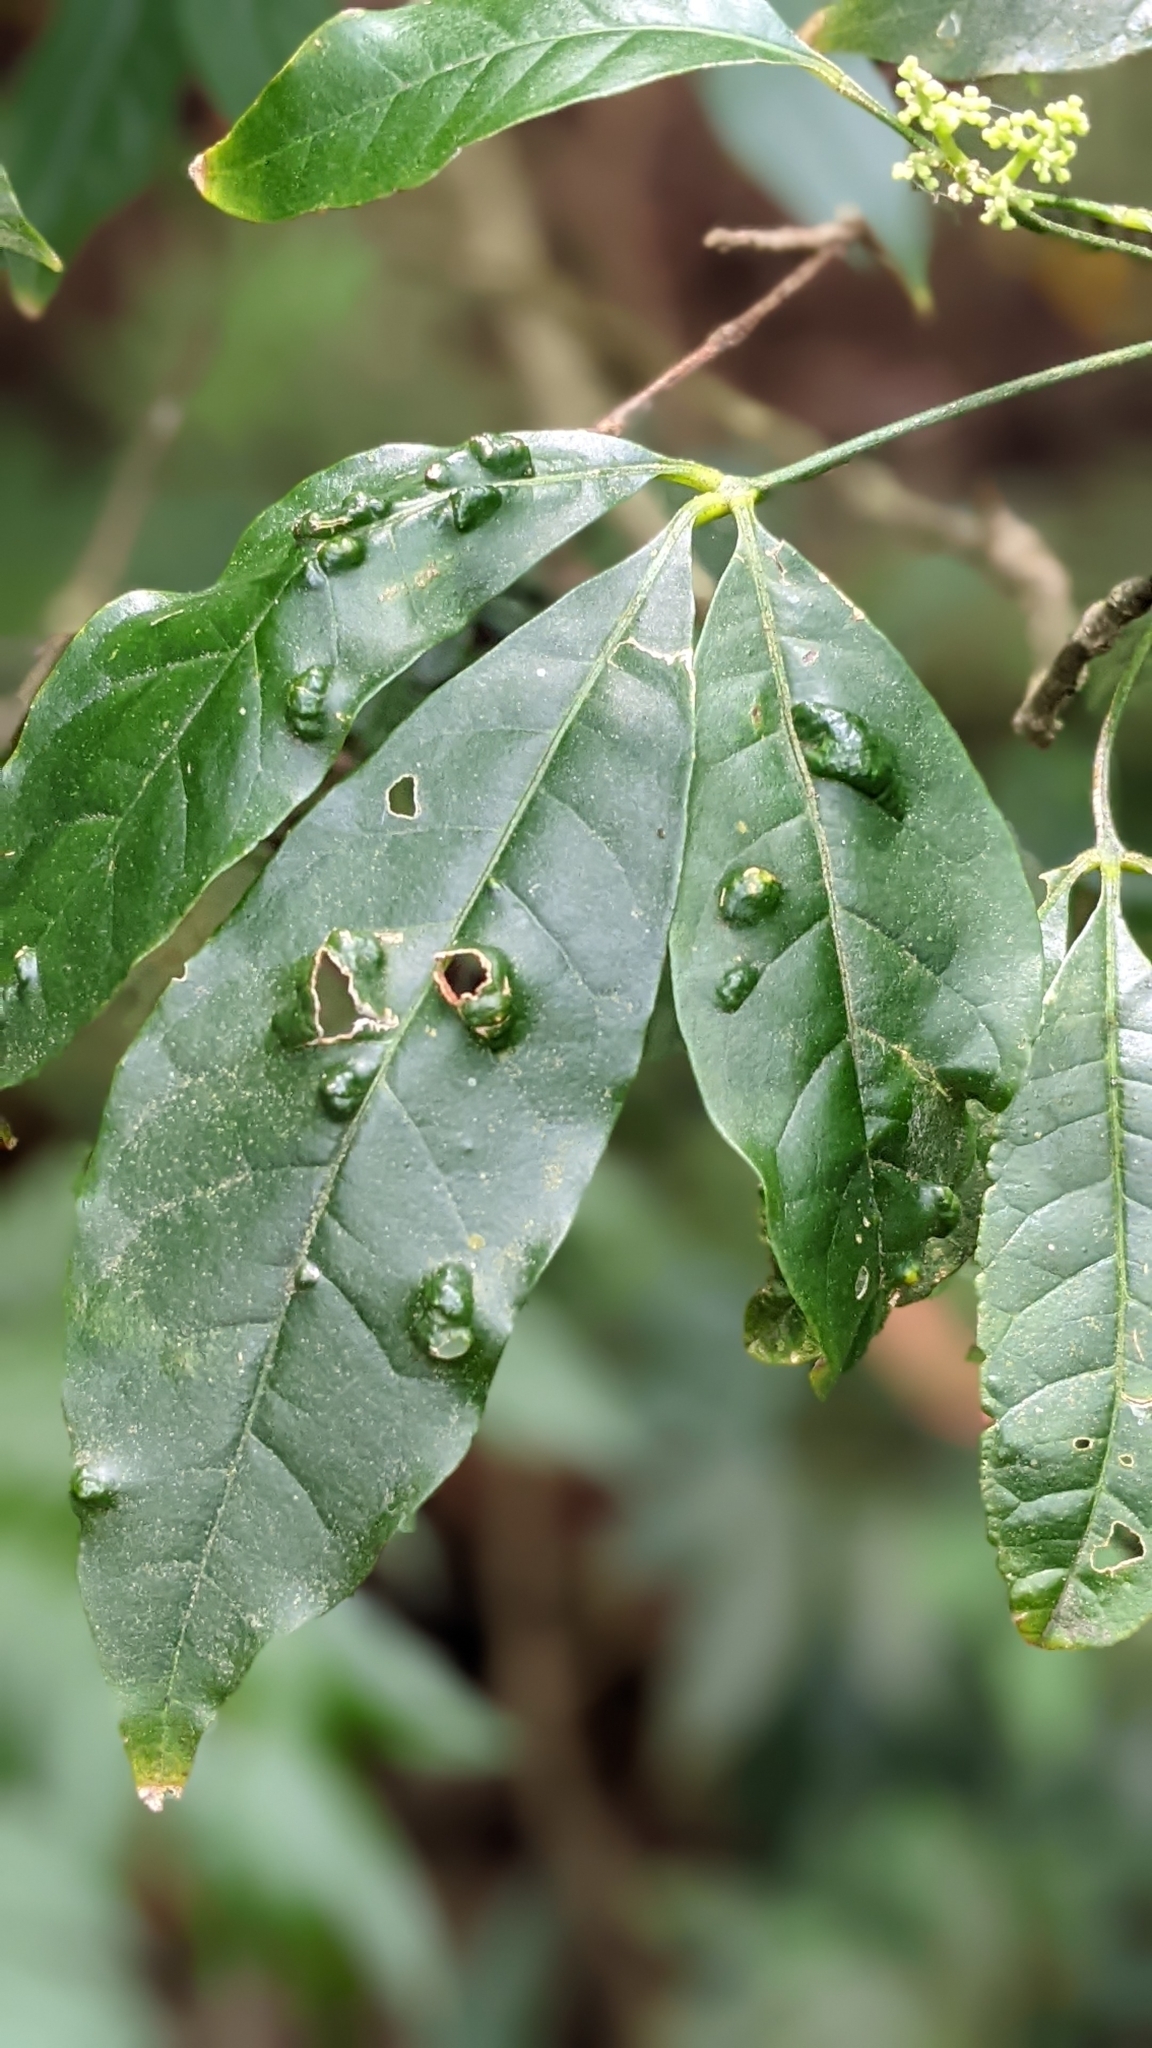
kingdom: Plantae
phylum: Tracheophyta
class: Magnoliopsida
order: Sapindales
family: Rutaceae
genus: Melicope
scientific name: Melicope pteleifolia
